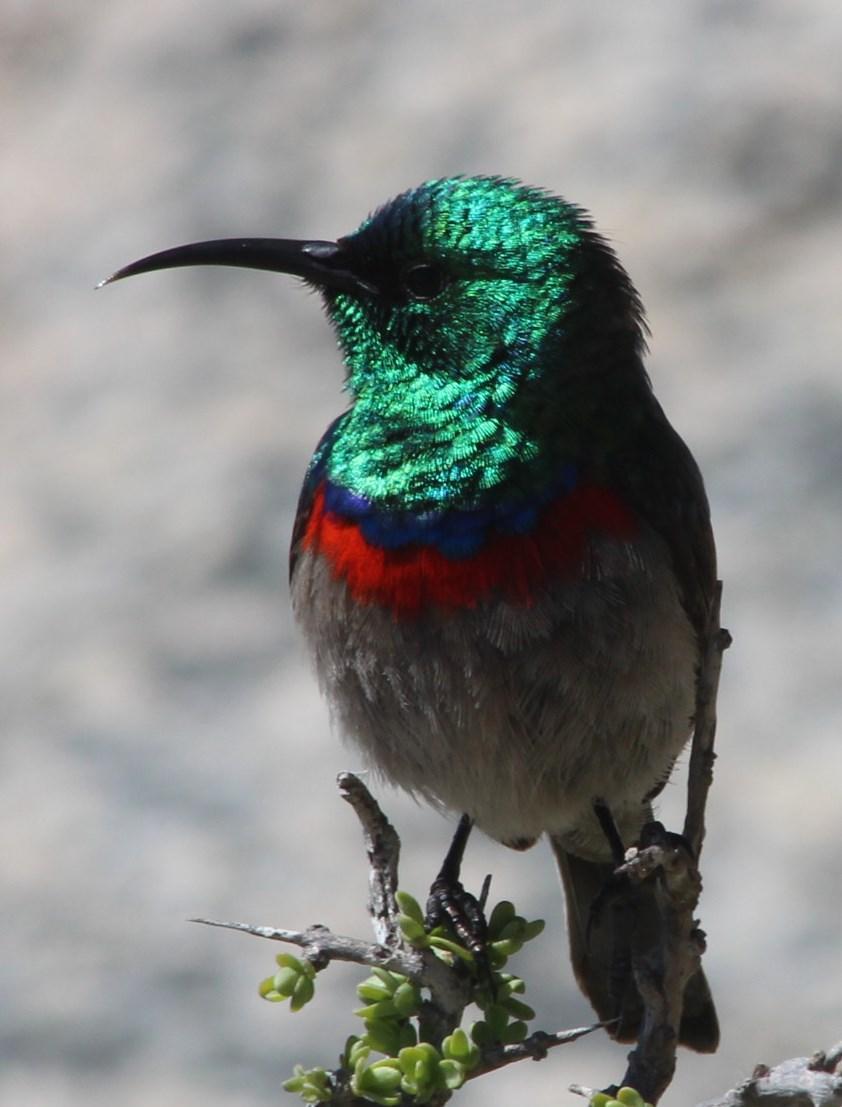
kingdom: Animalia
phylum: Chordata
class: Aves
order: Passeriformes
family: Nectariniidae
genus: Cinnyris
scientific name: Cinnyris chalybeus
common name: Southern double-collared sunbird
